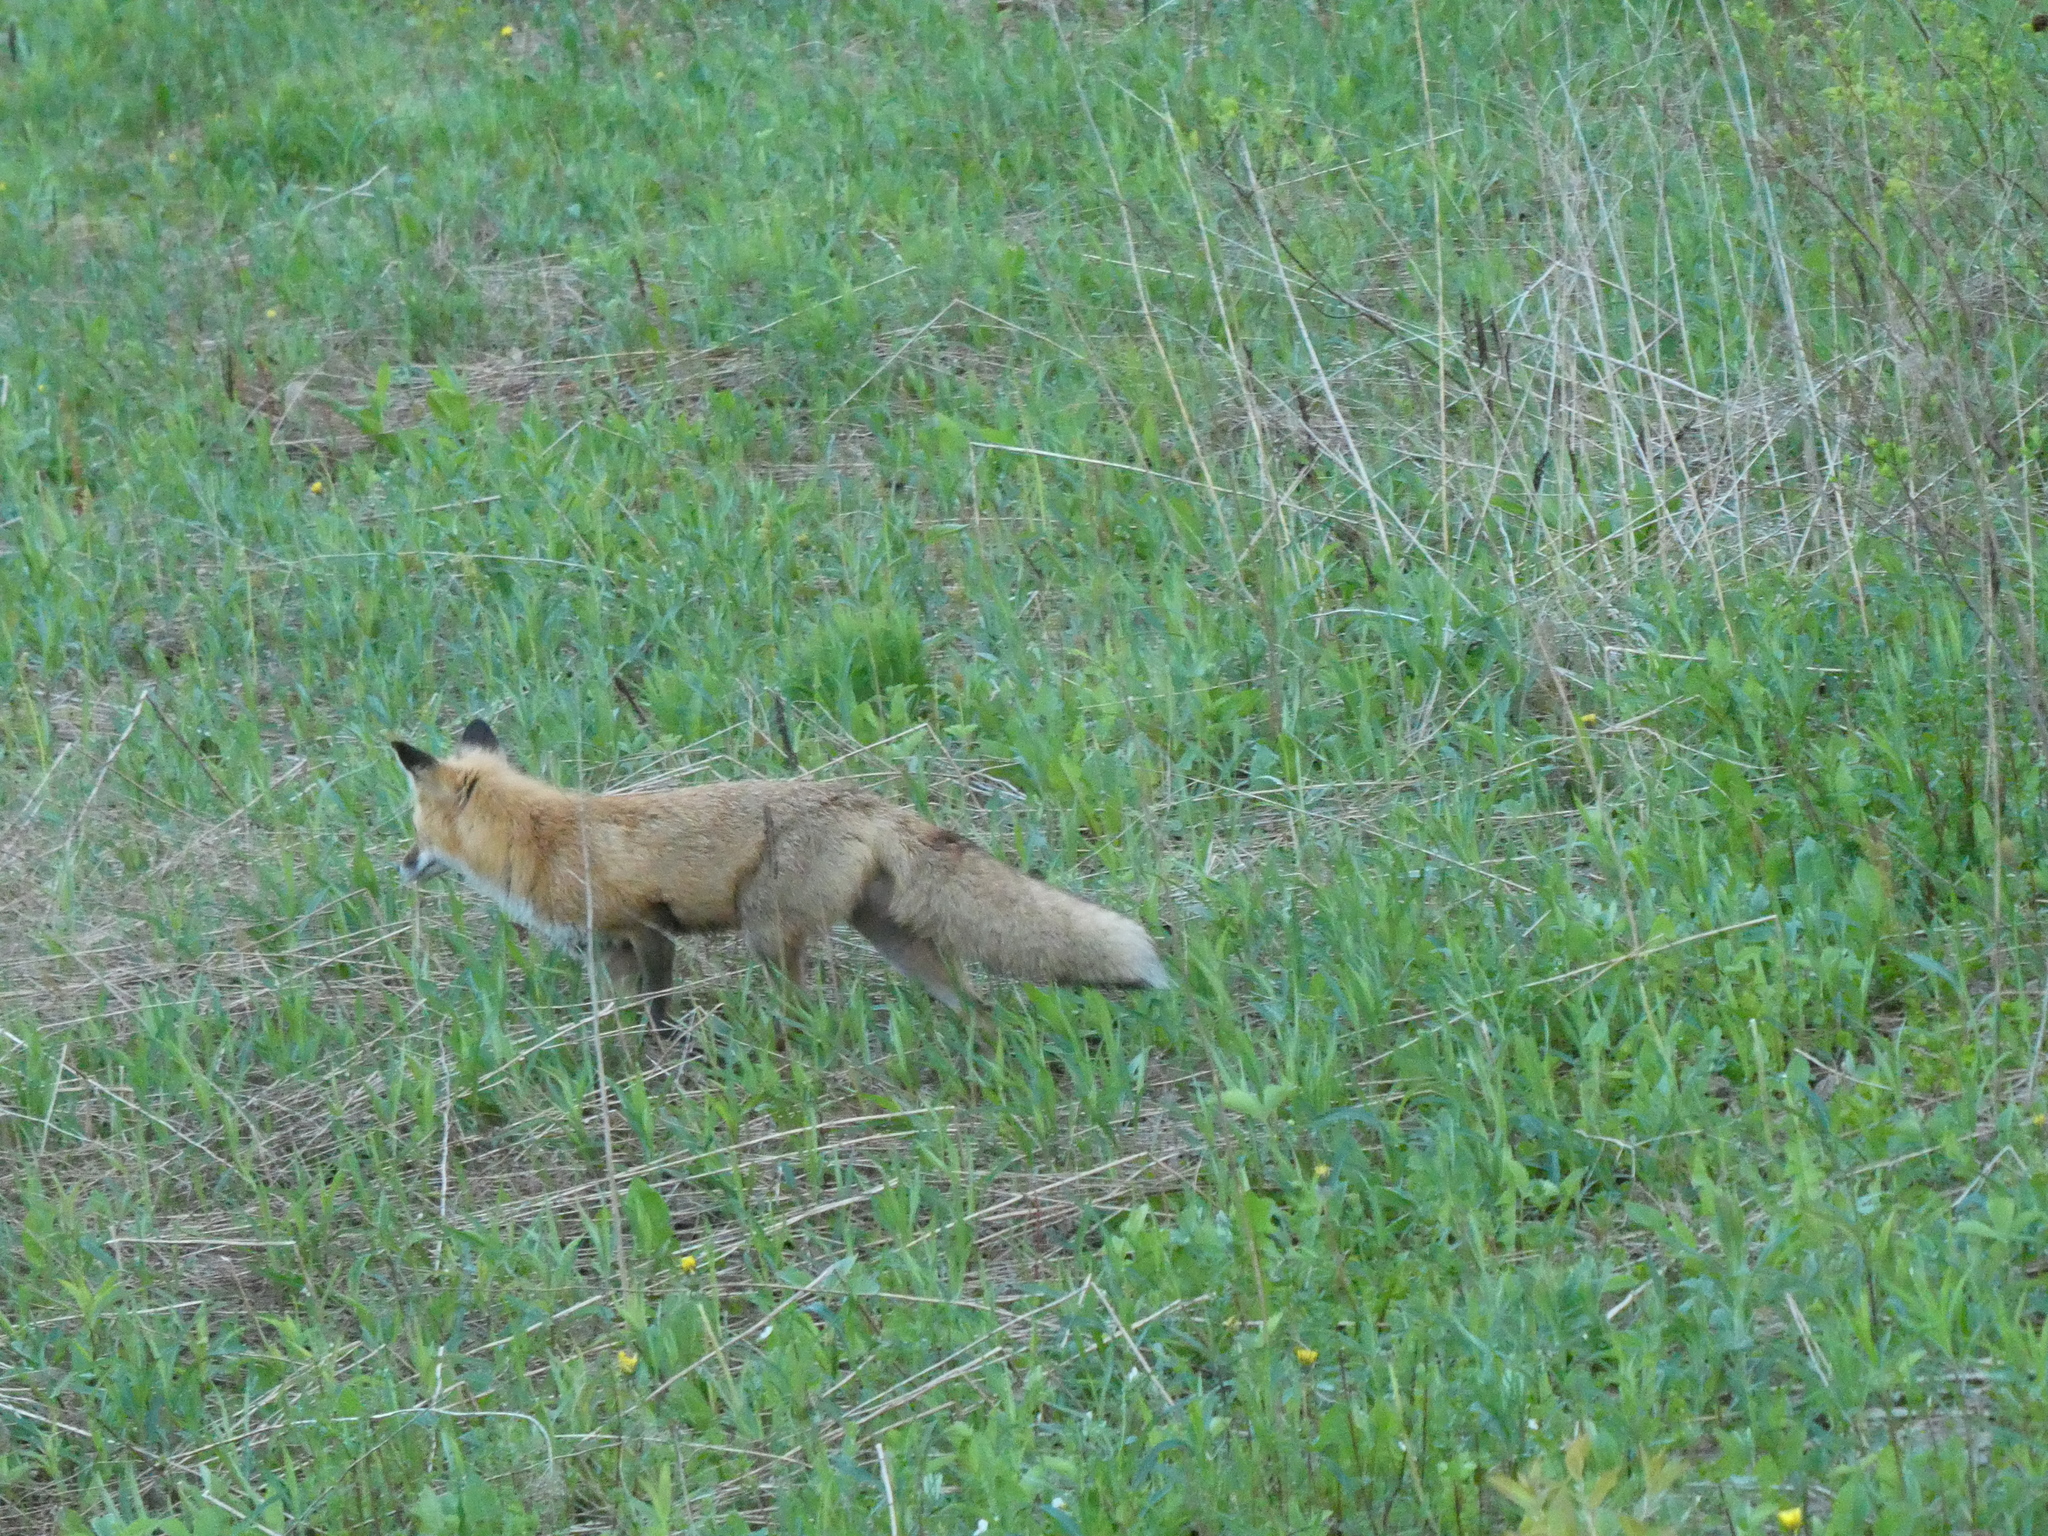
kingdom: Animalia
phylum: Chordata
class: Mammalia
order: Carnivora
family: Canidae
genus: Vulpes
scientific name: Vulpes vulpes
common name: Red fox
